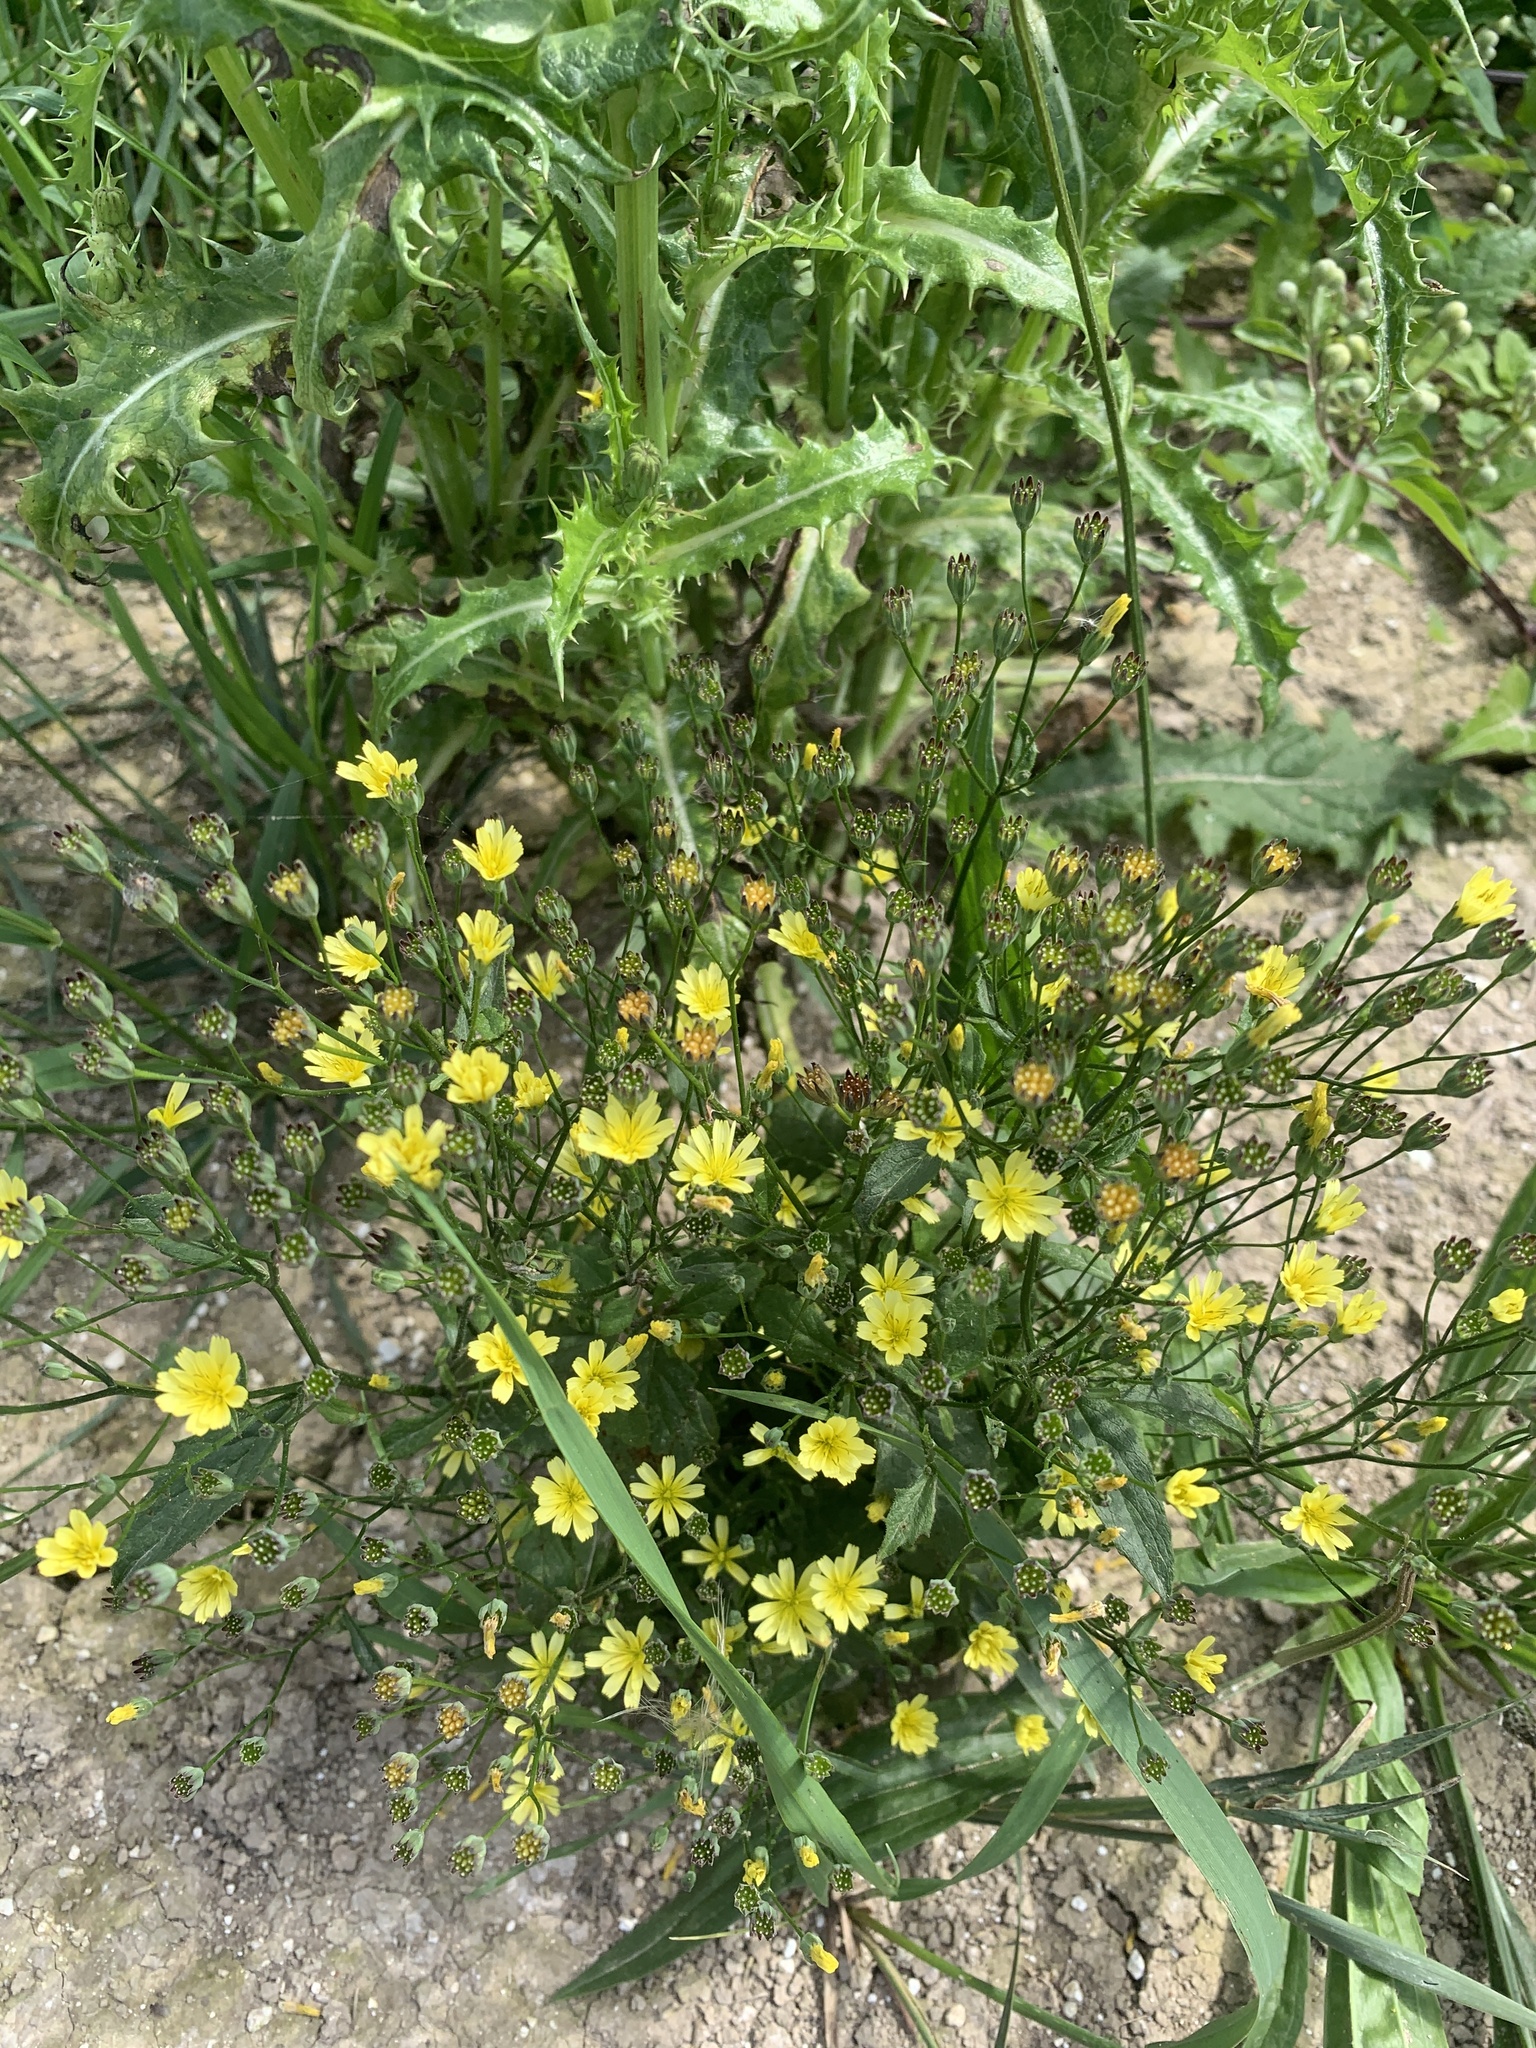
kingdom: Plantae
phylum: Tracheophyta
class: Magnoliopsida
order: Asterales
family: Asteraceae
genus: Lapsana
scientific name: Lapsana communis
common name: Nipplewort
